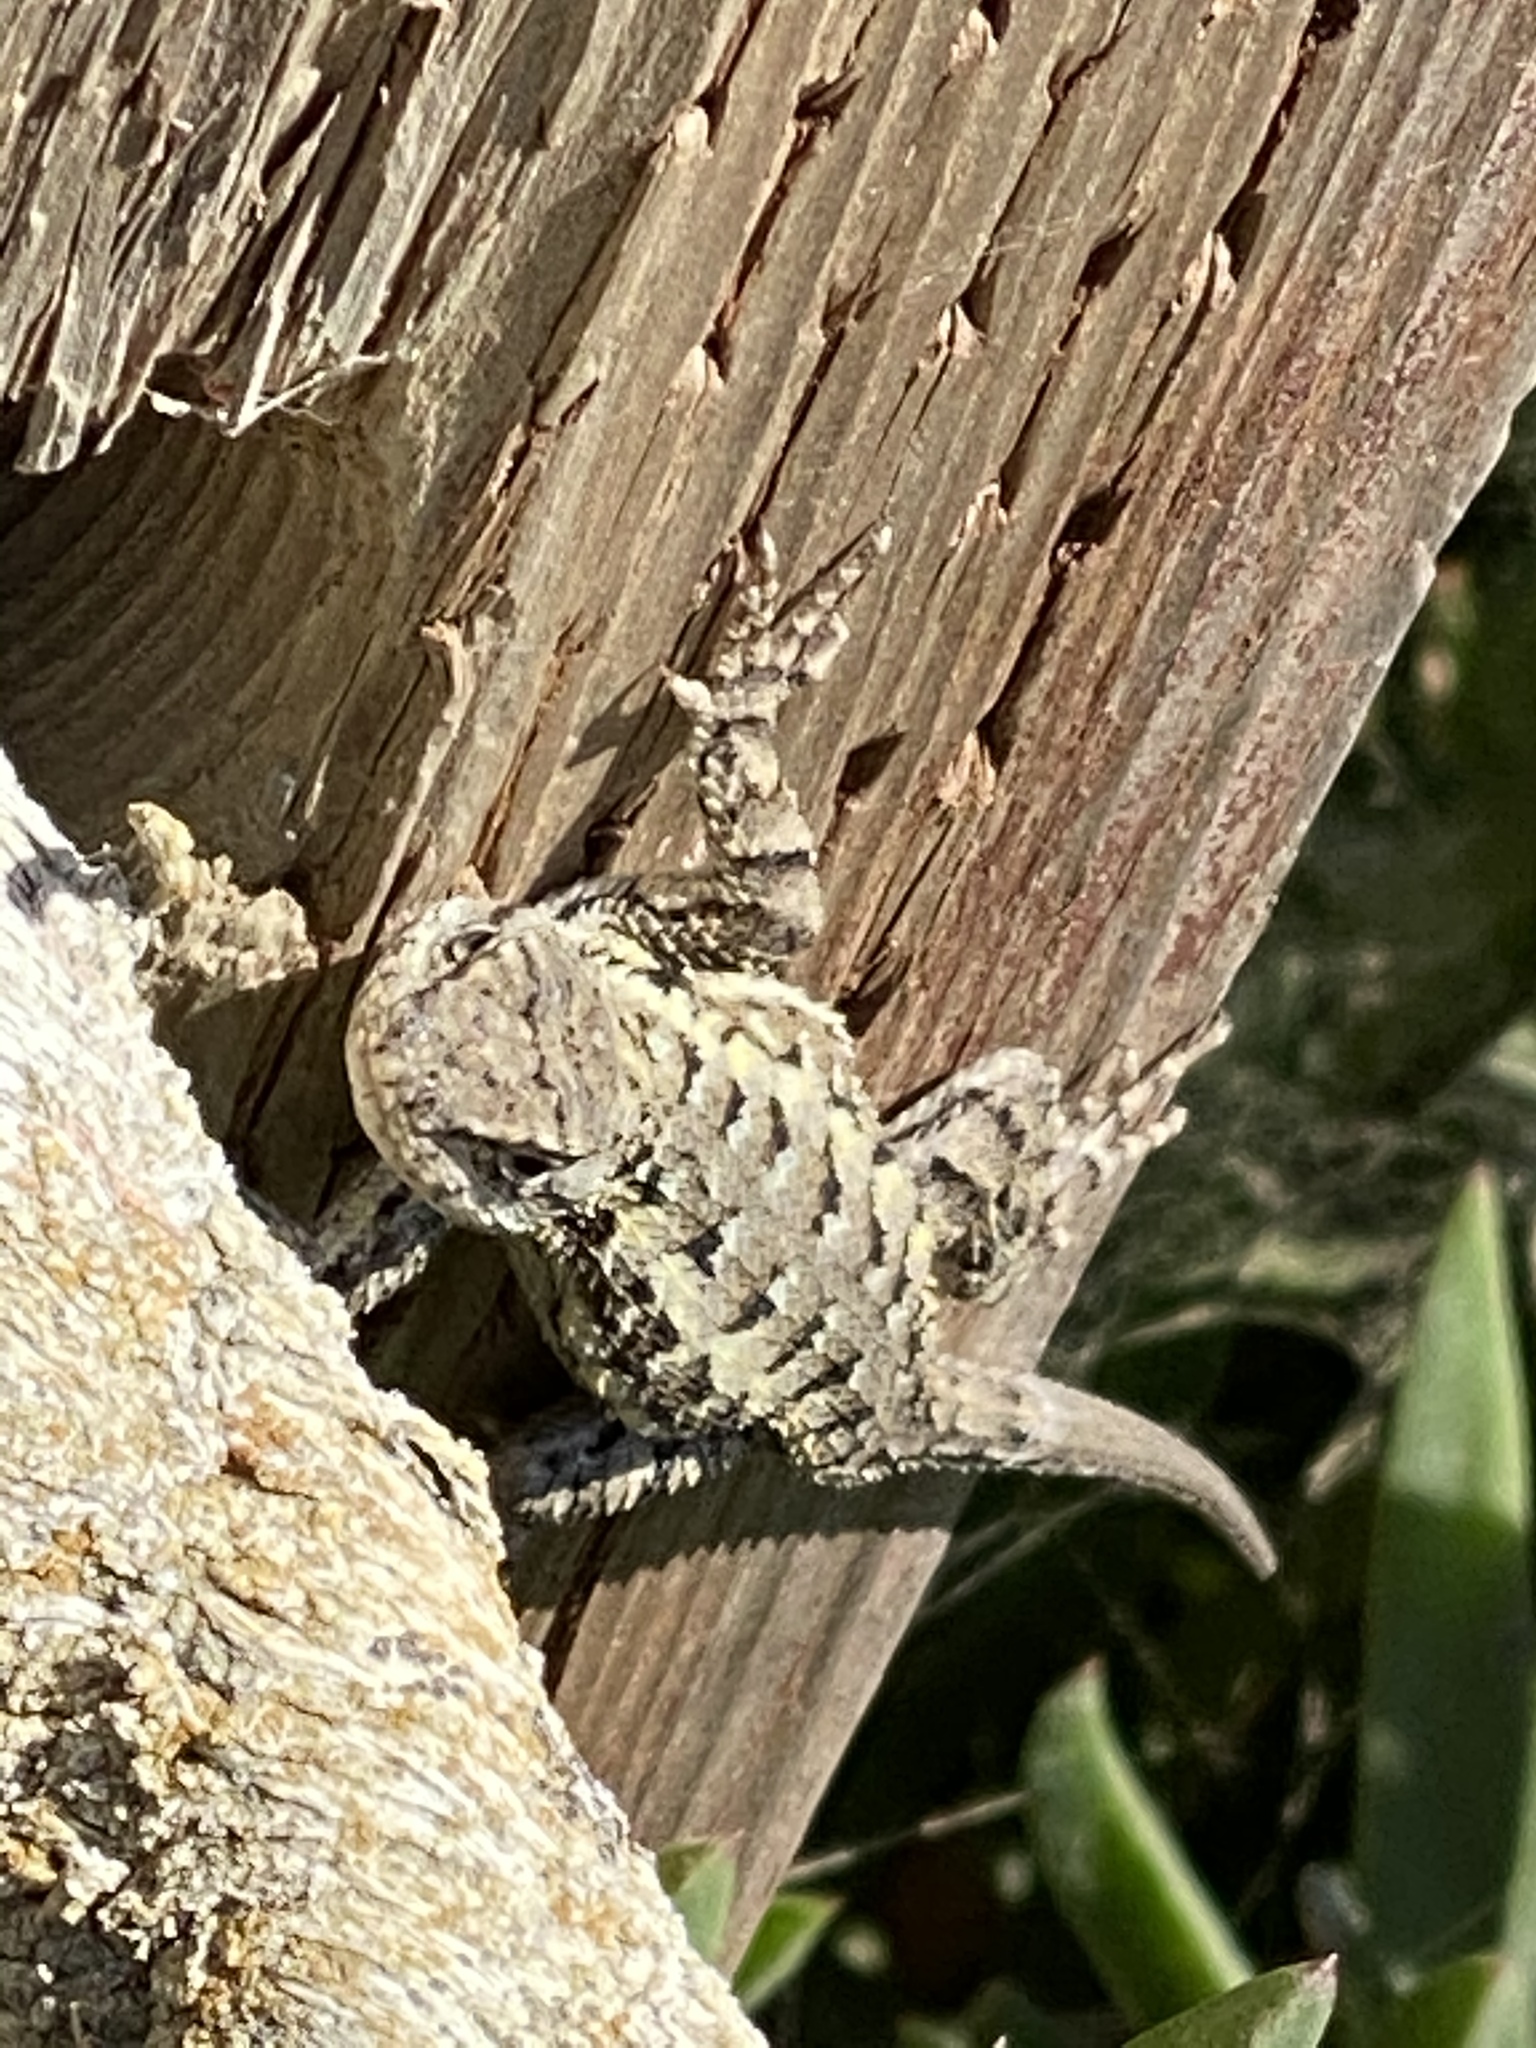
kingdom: Animalia
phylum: Chordata
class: Squamata
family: Phrynosomatidae
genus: Sceloporus
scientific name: Sceloporus occidentalis
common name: Western fence lizard
